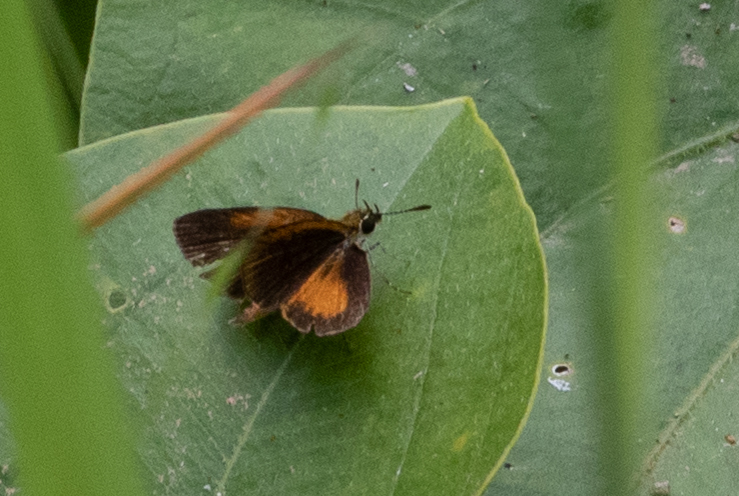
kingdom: Animalia
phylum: Arthropoda
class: Insecta
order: Lepidoptera
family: Hesperiidae
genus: Ancyloxypha
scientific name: Ancyloxypha numitor
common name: Least skipper
